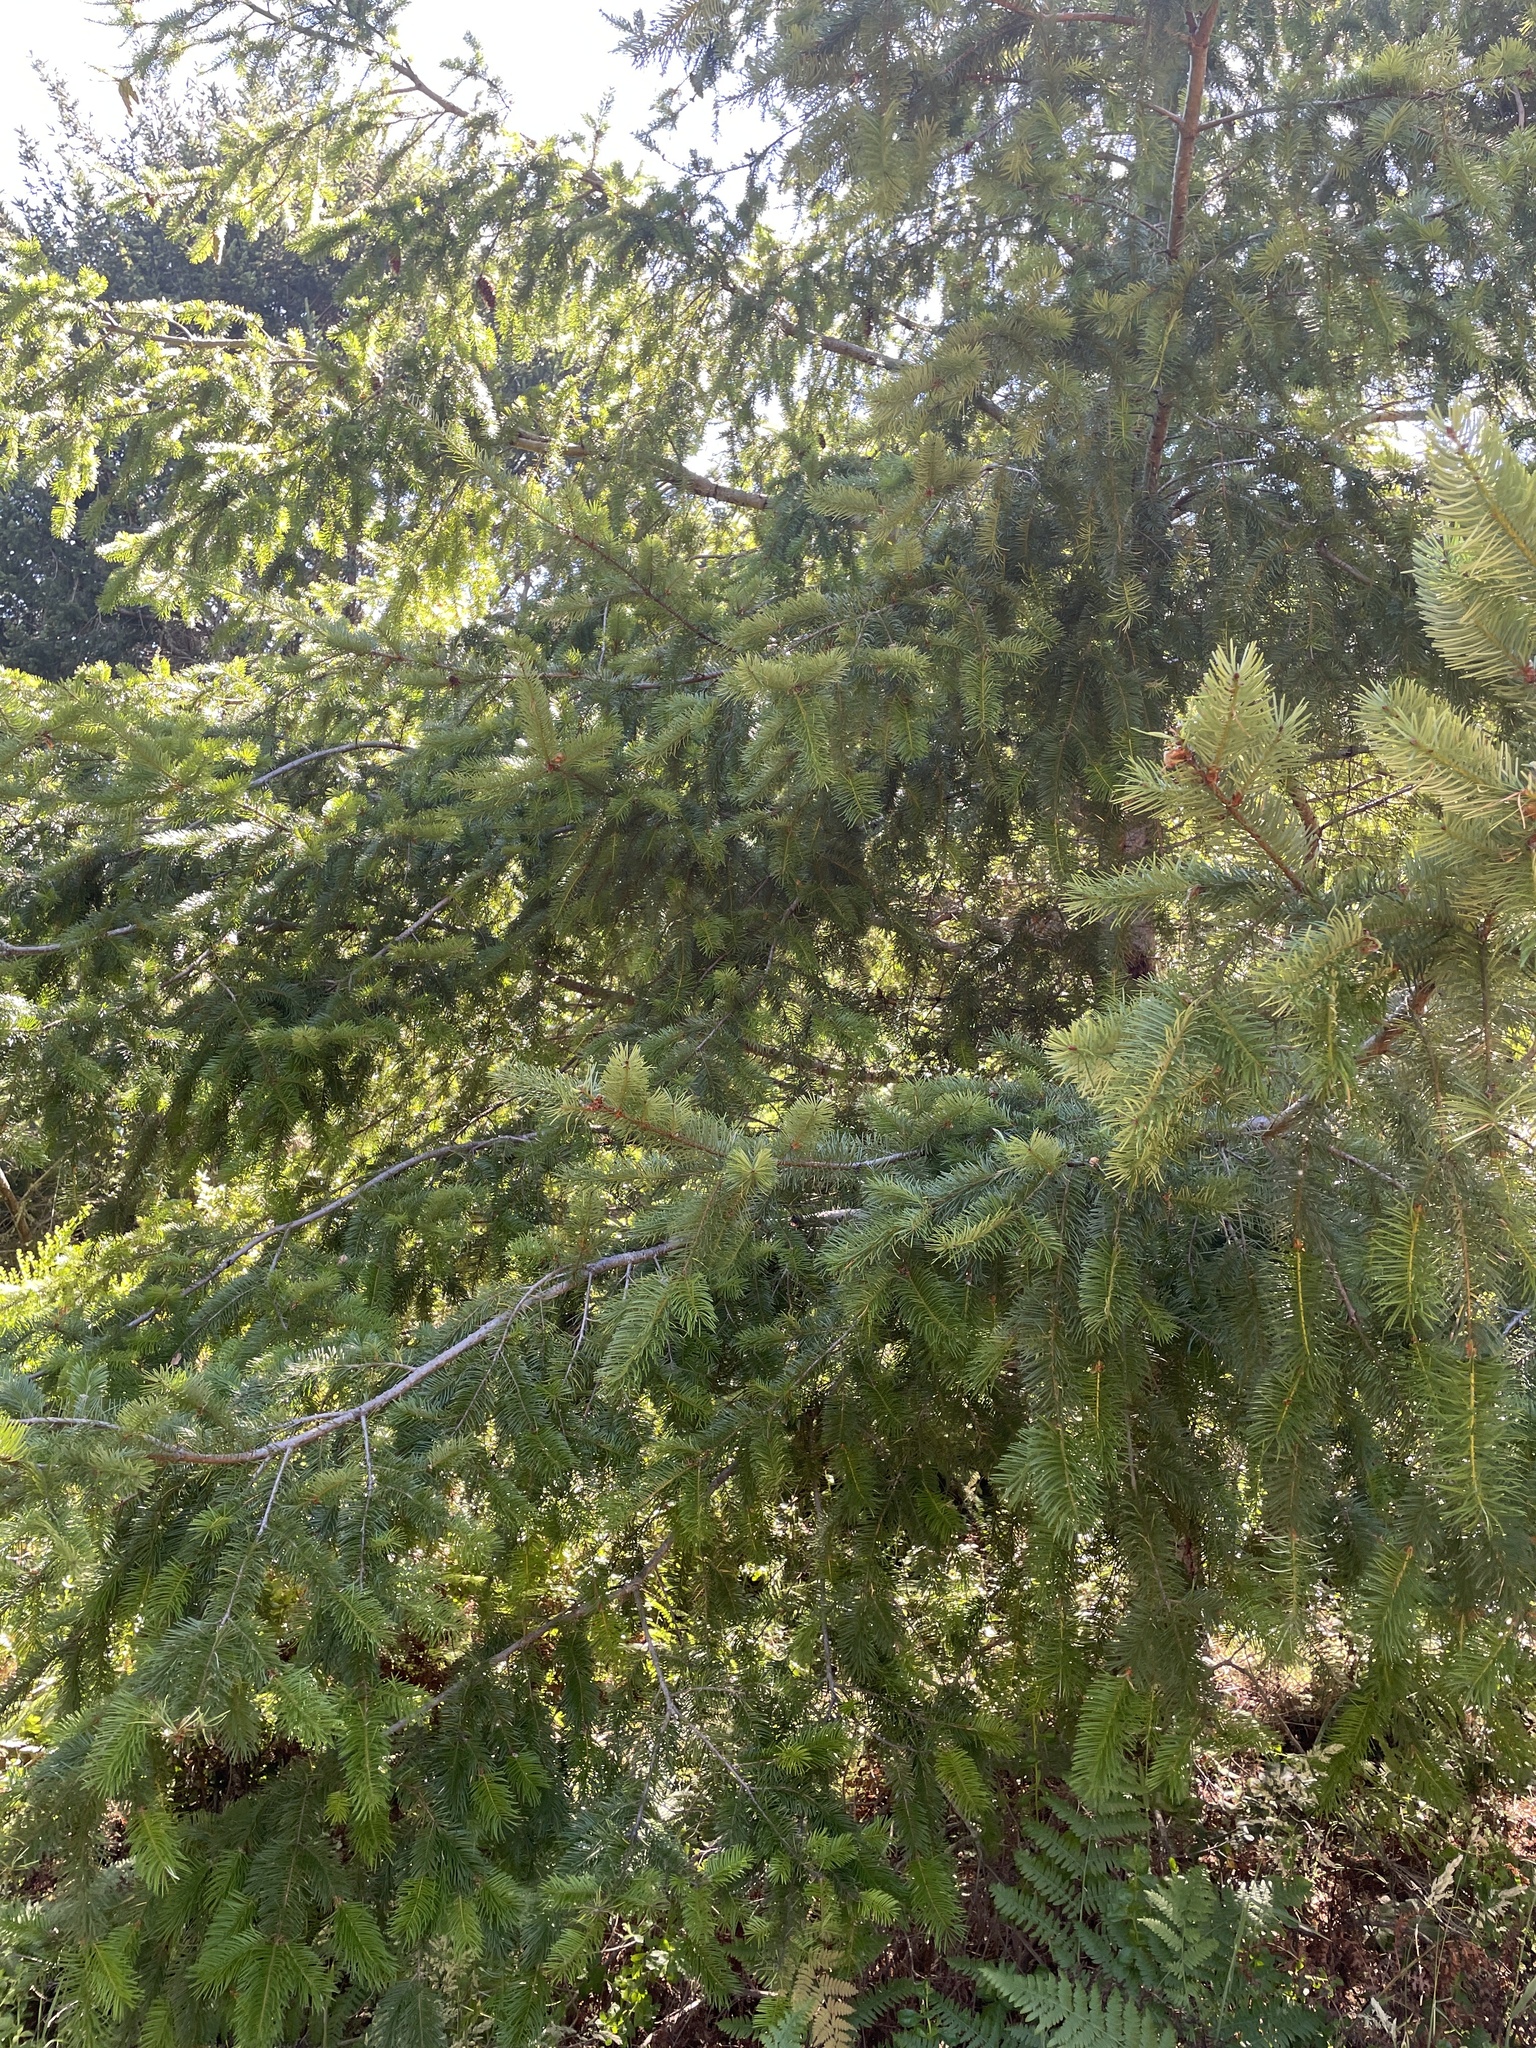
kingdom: Plantae
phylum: Tracheophyta
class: Pinopsida
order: Pinales
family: Pinaceae
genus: Pseudotsuga
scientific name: Pseudotsuga menziesii
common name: Douglas fir
